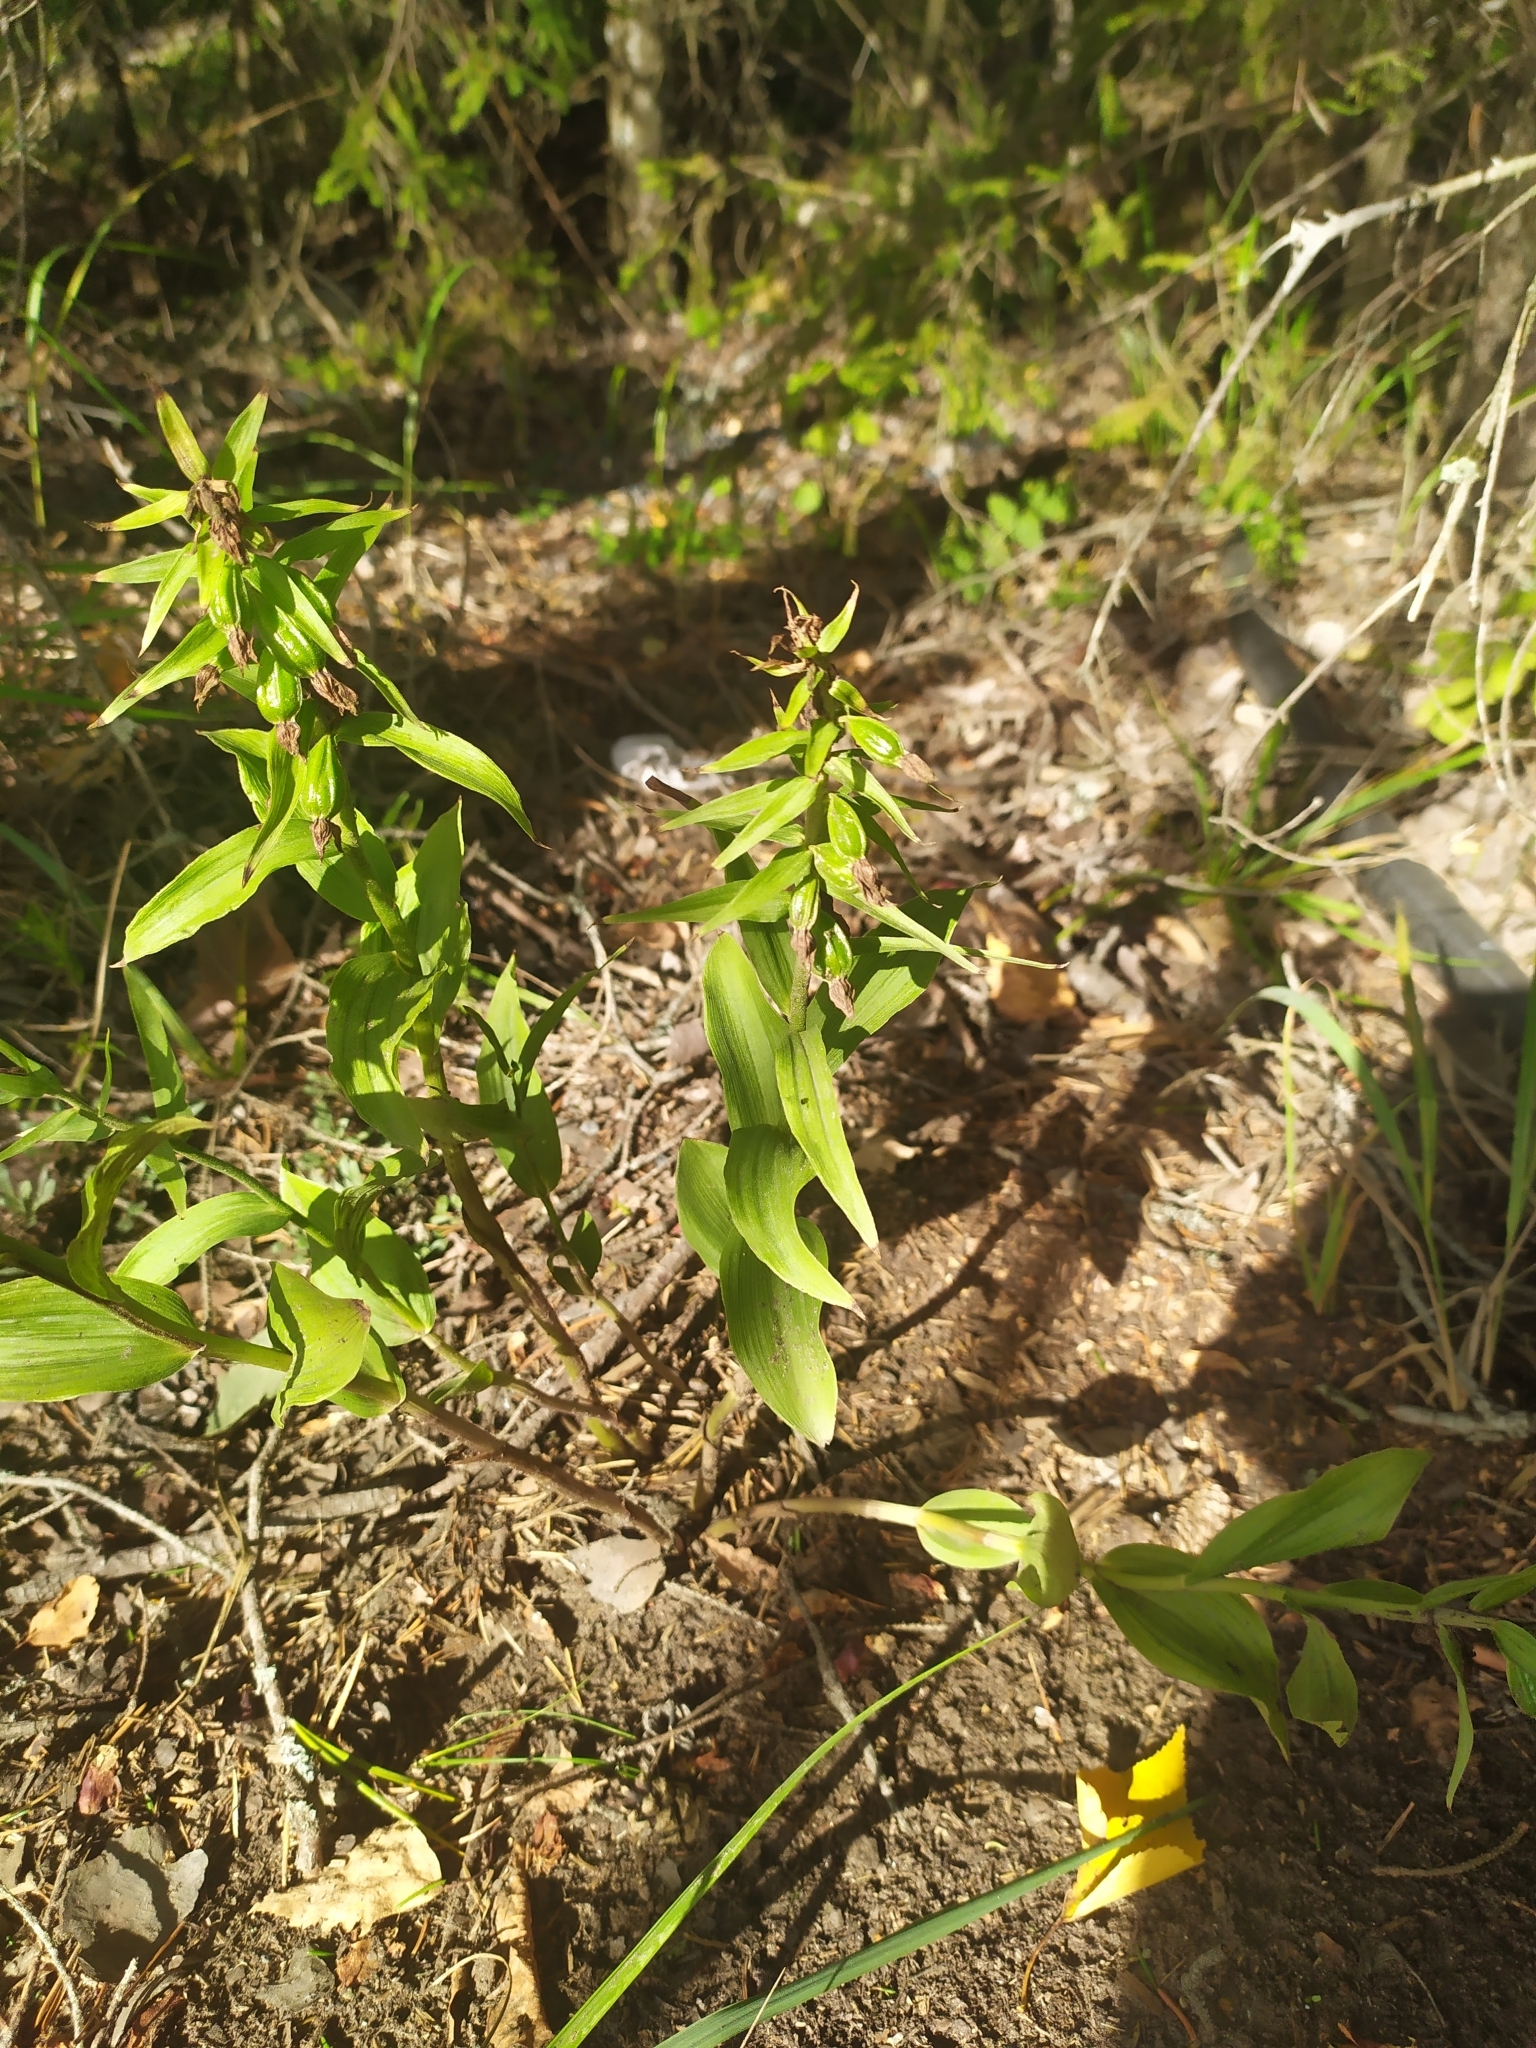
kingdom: Plantae
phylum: Tracheophyta
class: Liliopsida
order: Asparagales
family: Orchidaceae
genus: Epipactis
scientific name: Epipactis helleborine
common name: Broad-leaved helleborine
